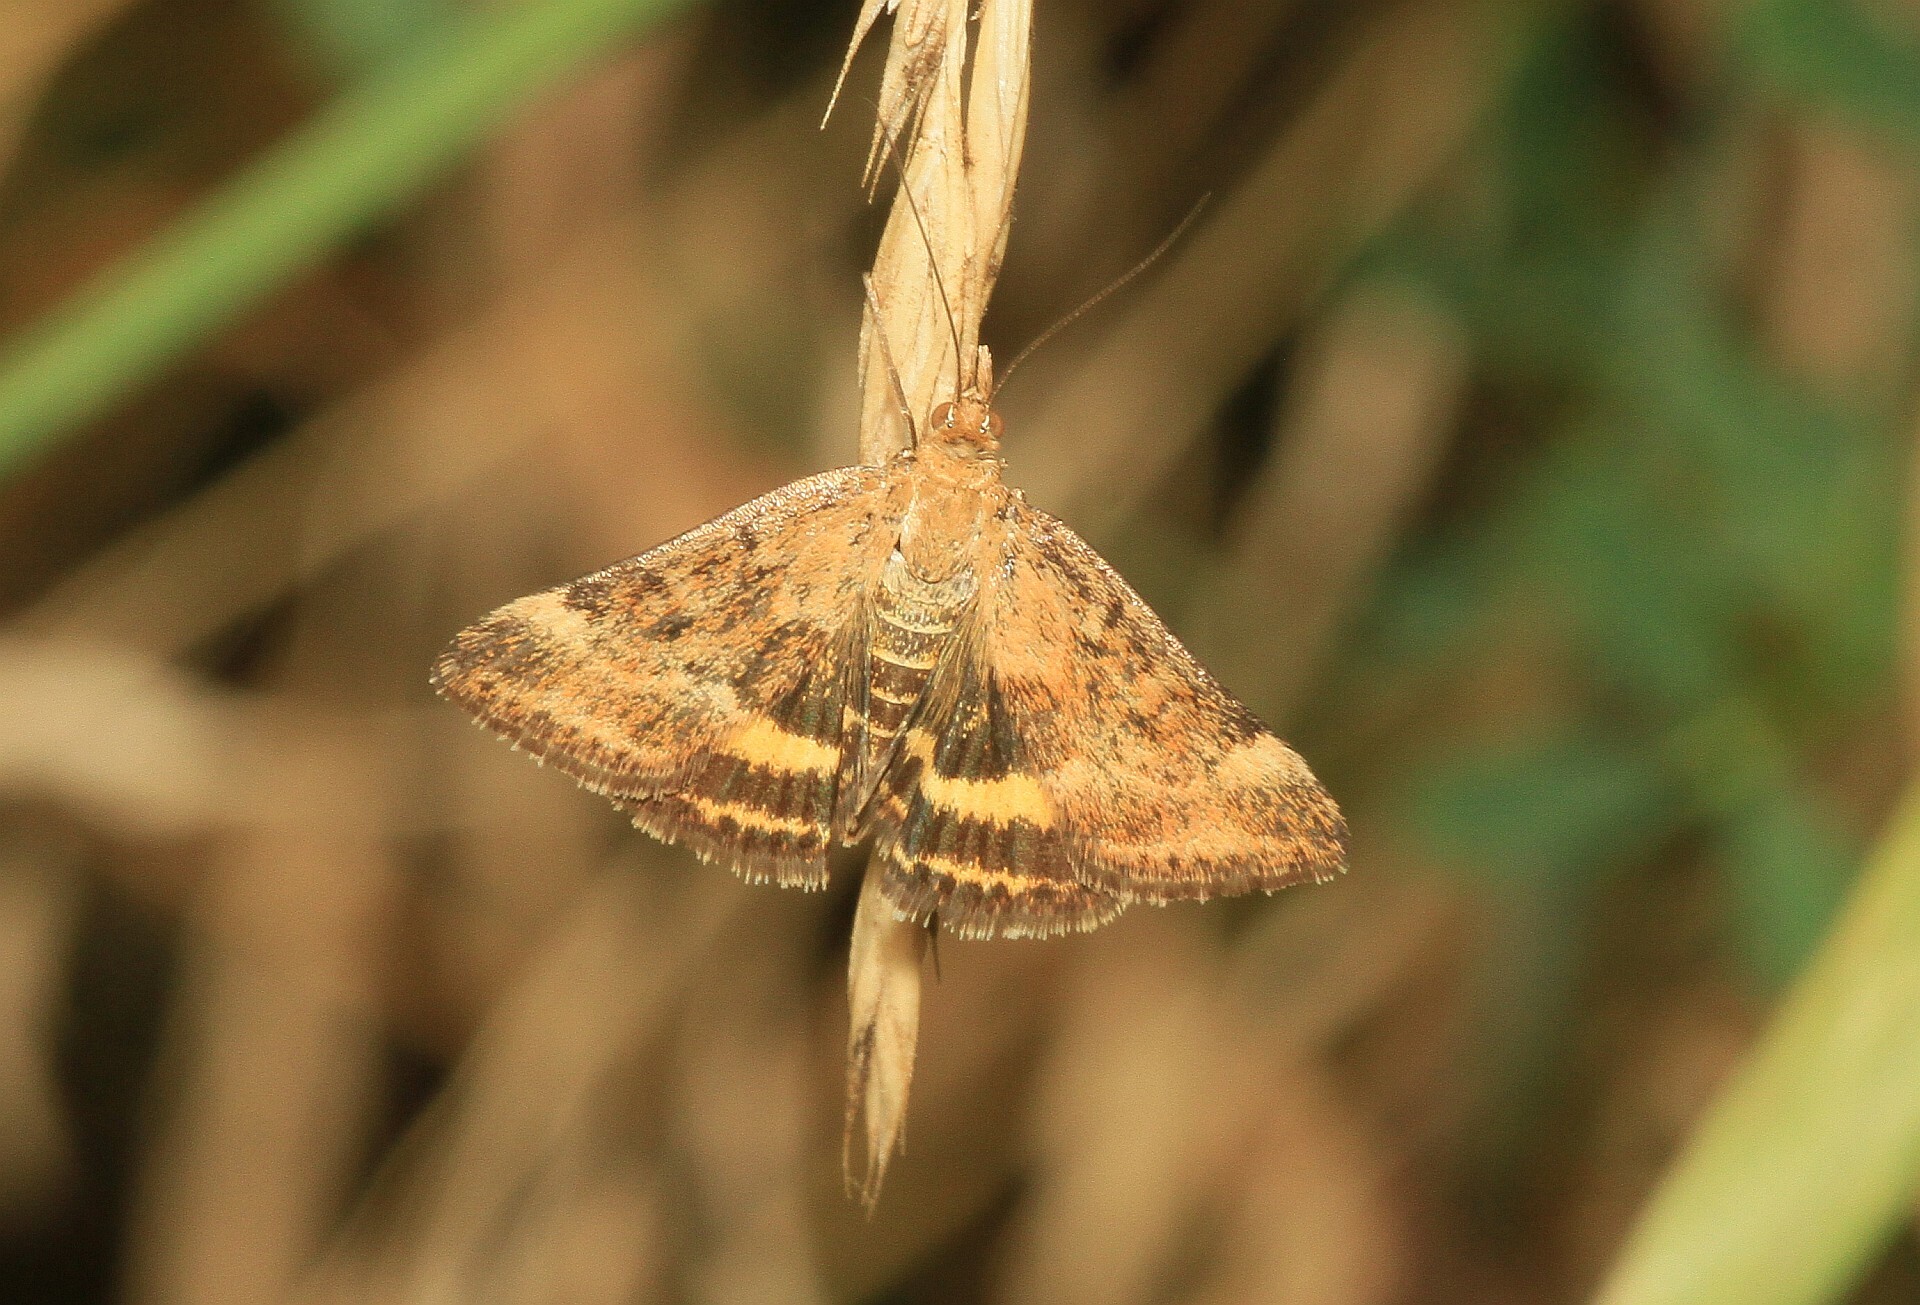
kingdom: Animalia
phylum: Arthropoda
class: Insecta
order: Lepidoptera
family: Crambidae
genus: Pyrausta
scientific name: Pyrausta despicata
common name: Straw-barred pearl
